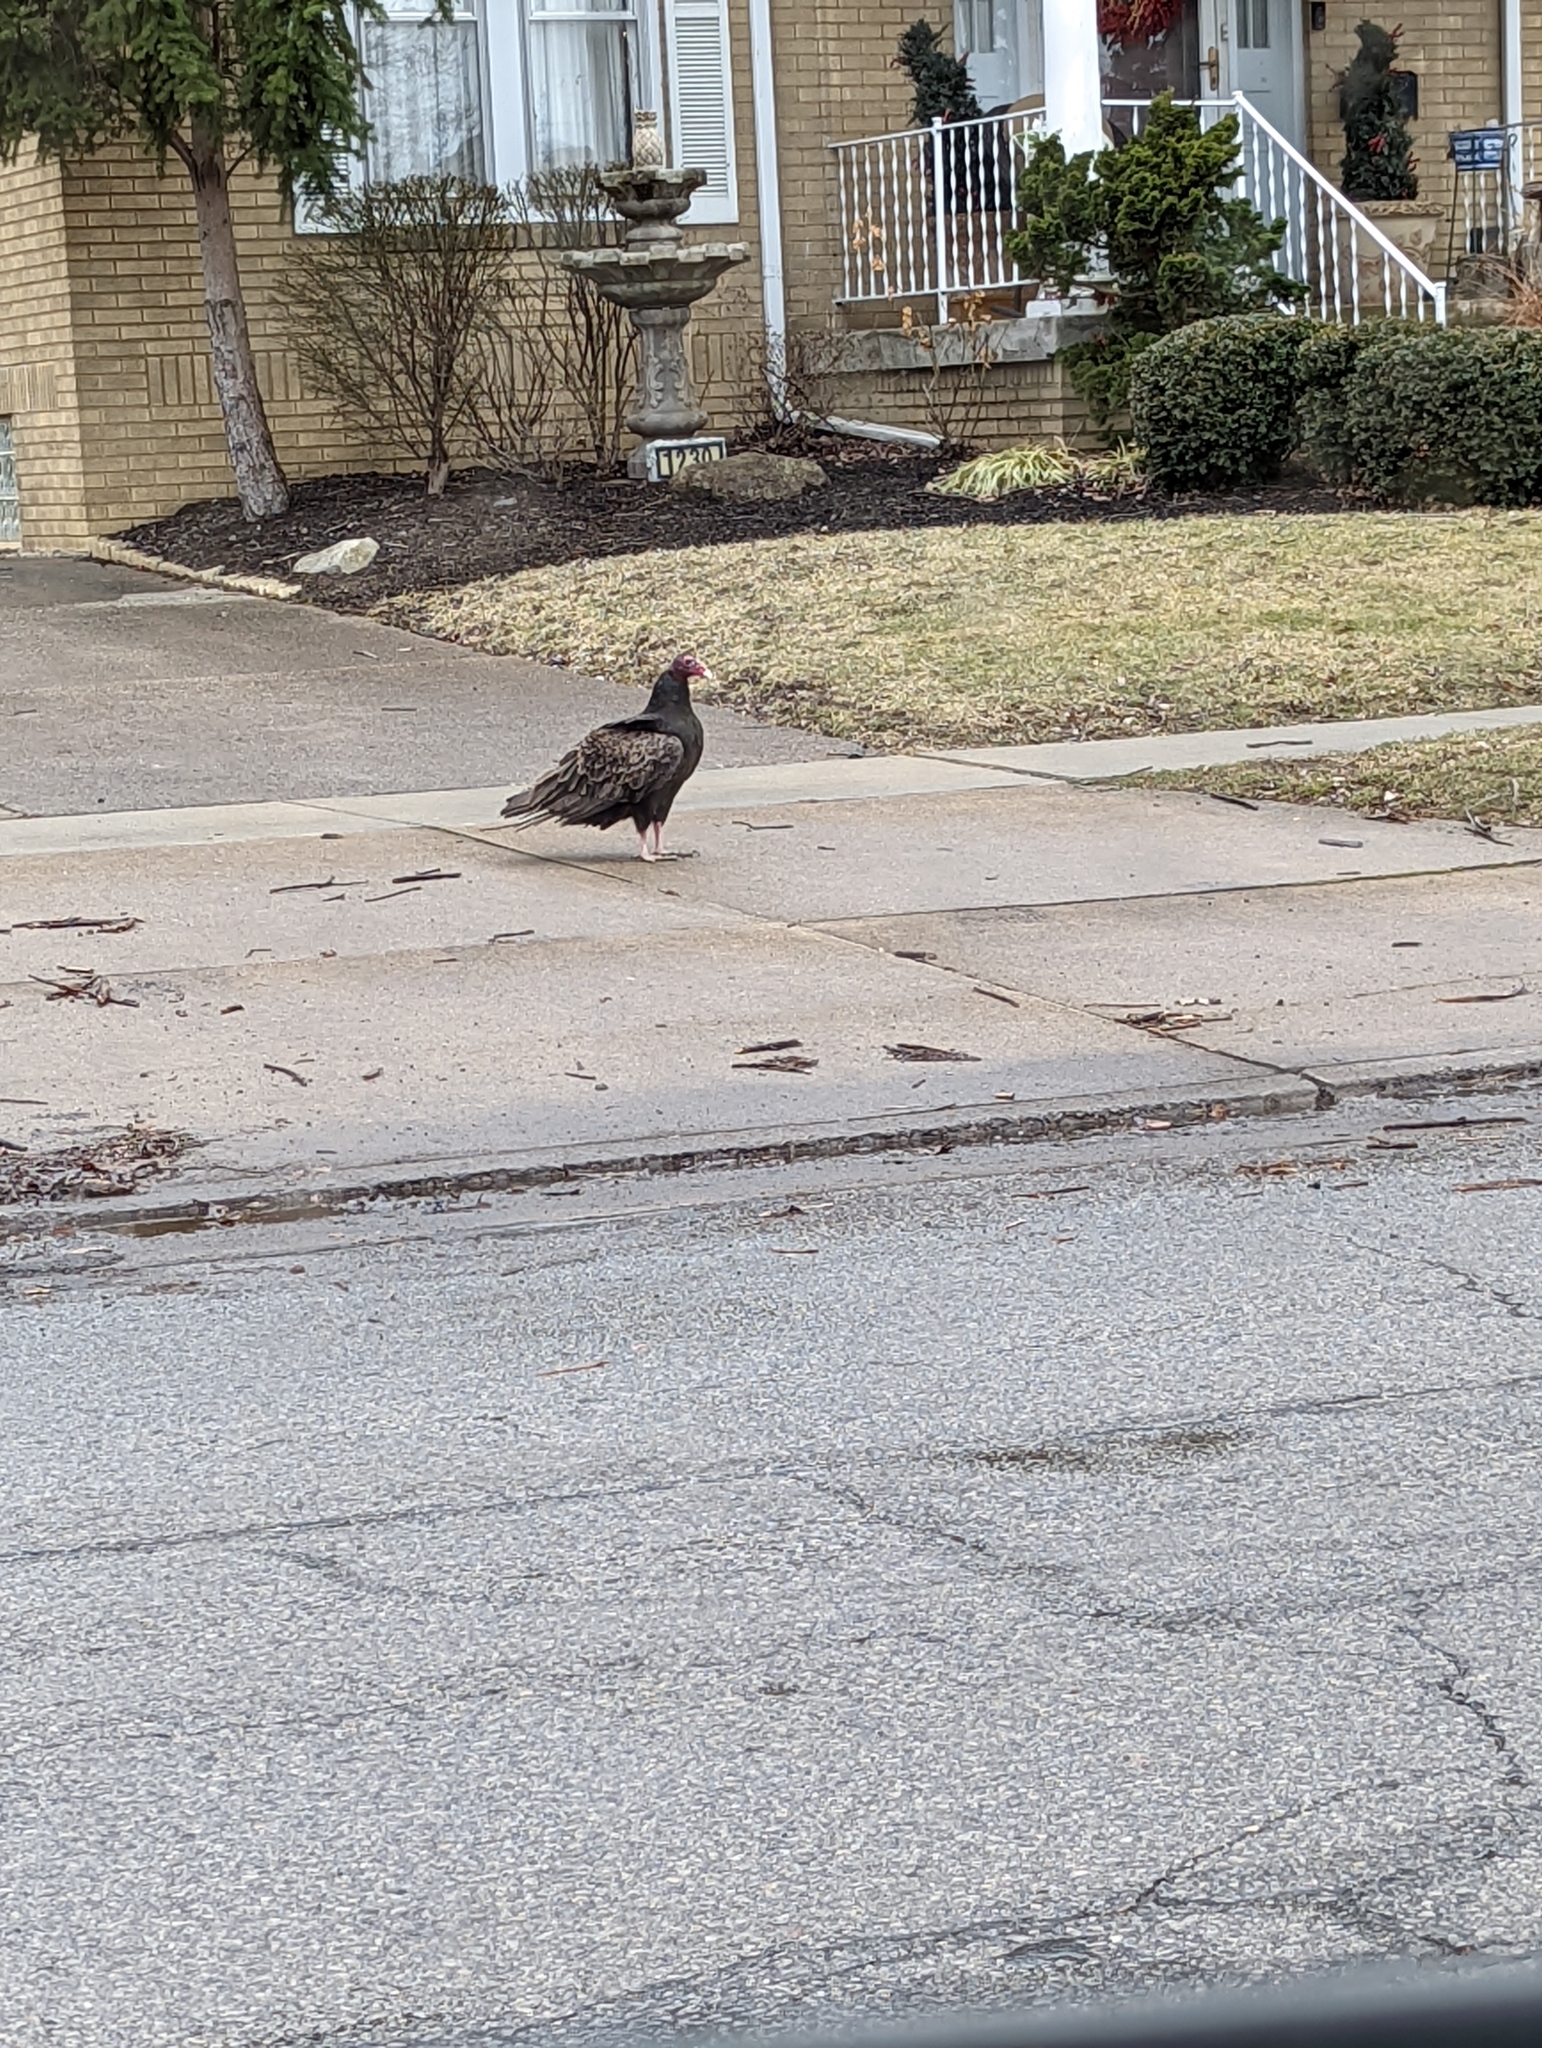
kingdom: Animalia
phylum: Chordata
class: Aves
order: Accipitriformes
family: Cathartidae
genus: Cathartes
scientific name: Cathartes aura
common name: Turkey vulture
